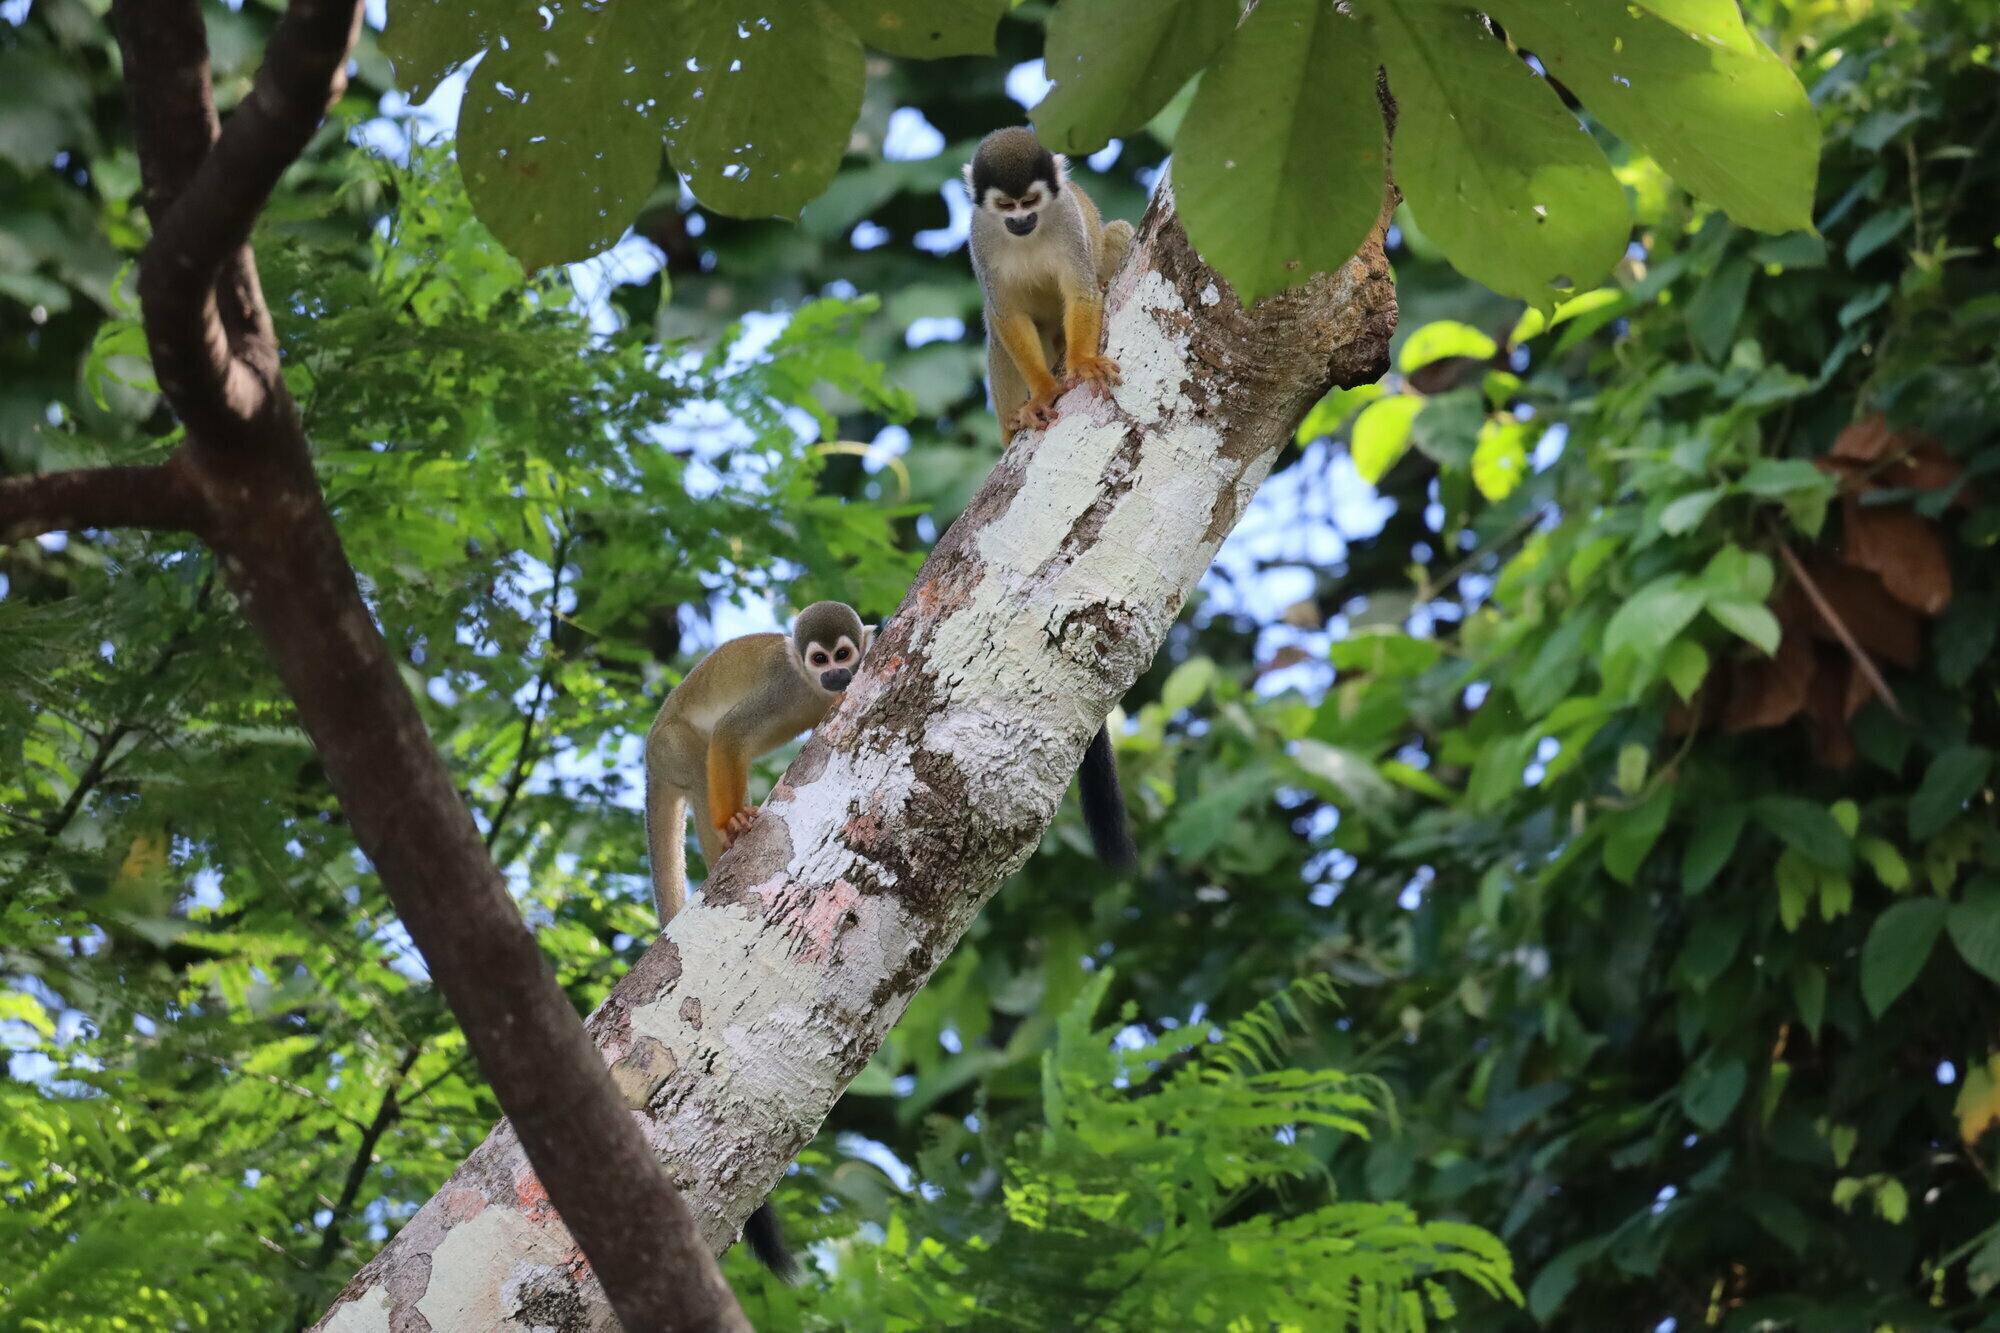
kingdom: Animalia
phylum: Chordata
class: Mammalia
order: Primates
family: Cebidae
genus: Saimiri
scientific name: Saimiri cassiquiarensis
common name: Humboldt’s squirrel monkey
